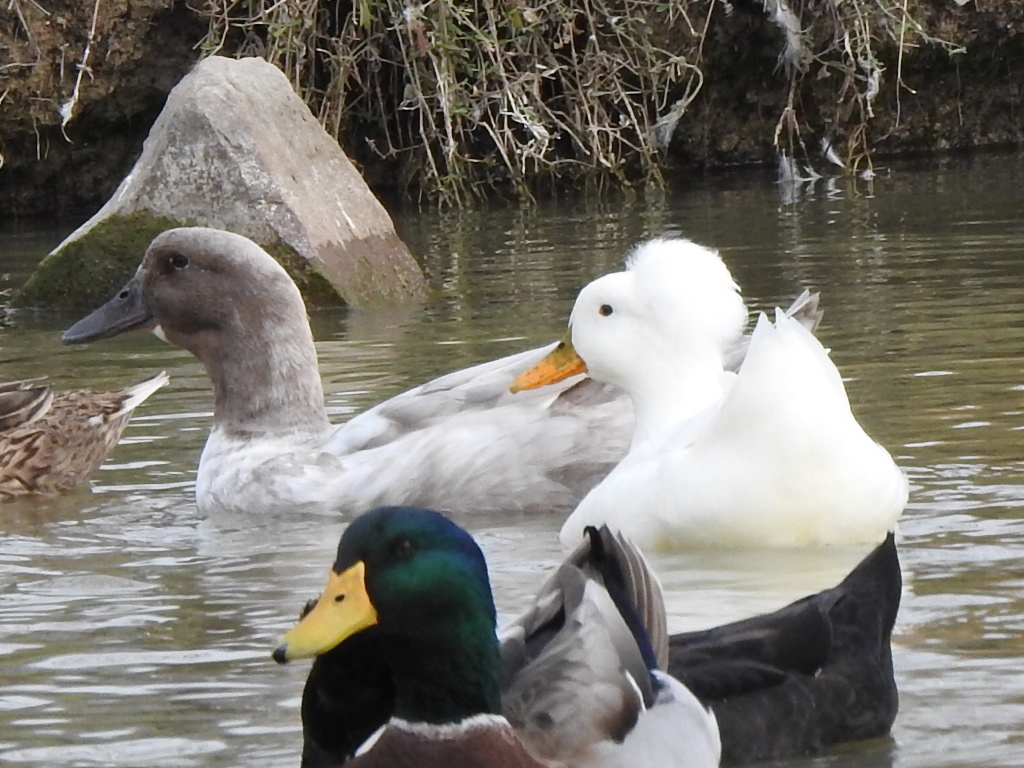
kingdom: Animalia
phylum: Chordata
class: Aves
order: Anseriformes
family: Anatidae
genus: Anas
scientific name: Anas platyrhynchos
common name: Mallard
